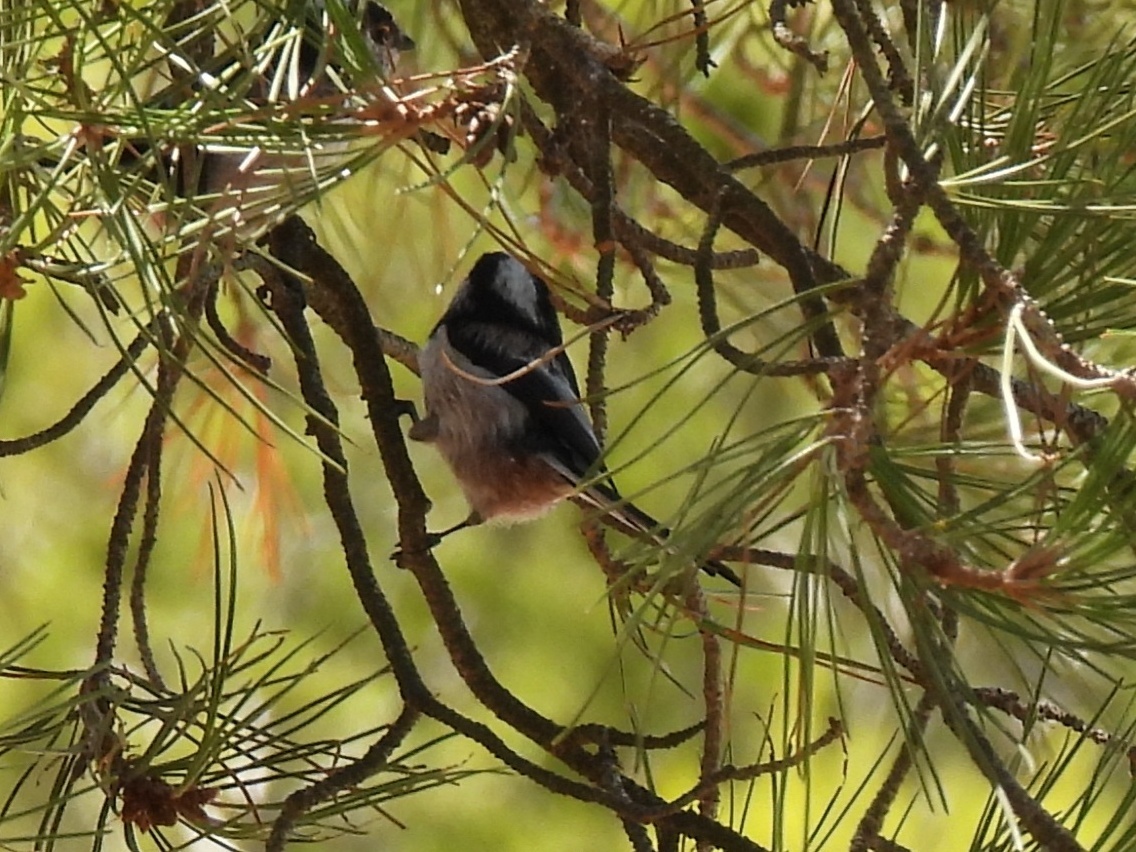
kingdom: Animalia
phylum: Chordata
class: Aves
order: Passeriformes
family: Aegithalidae
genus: Aegithalos
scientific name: Aegithalos caudatus
